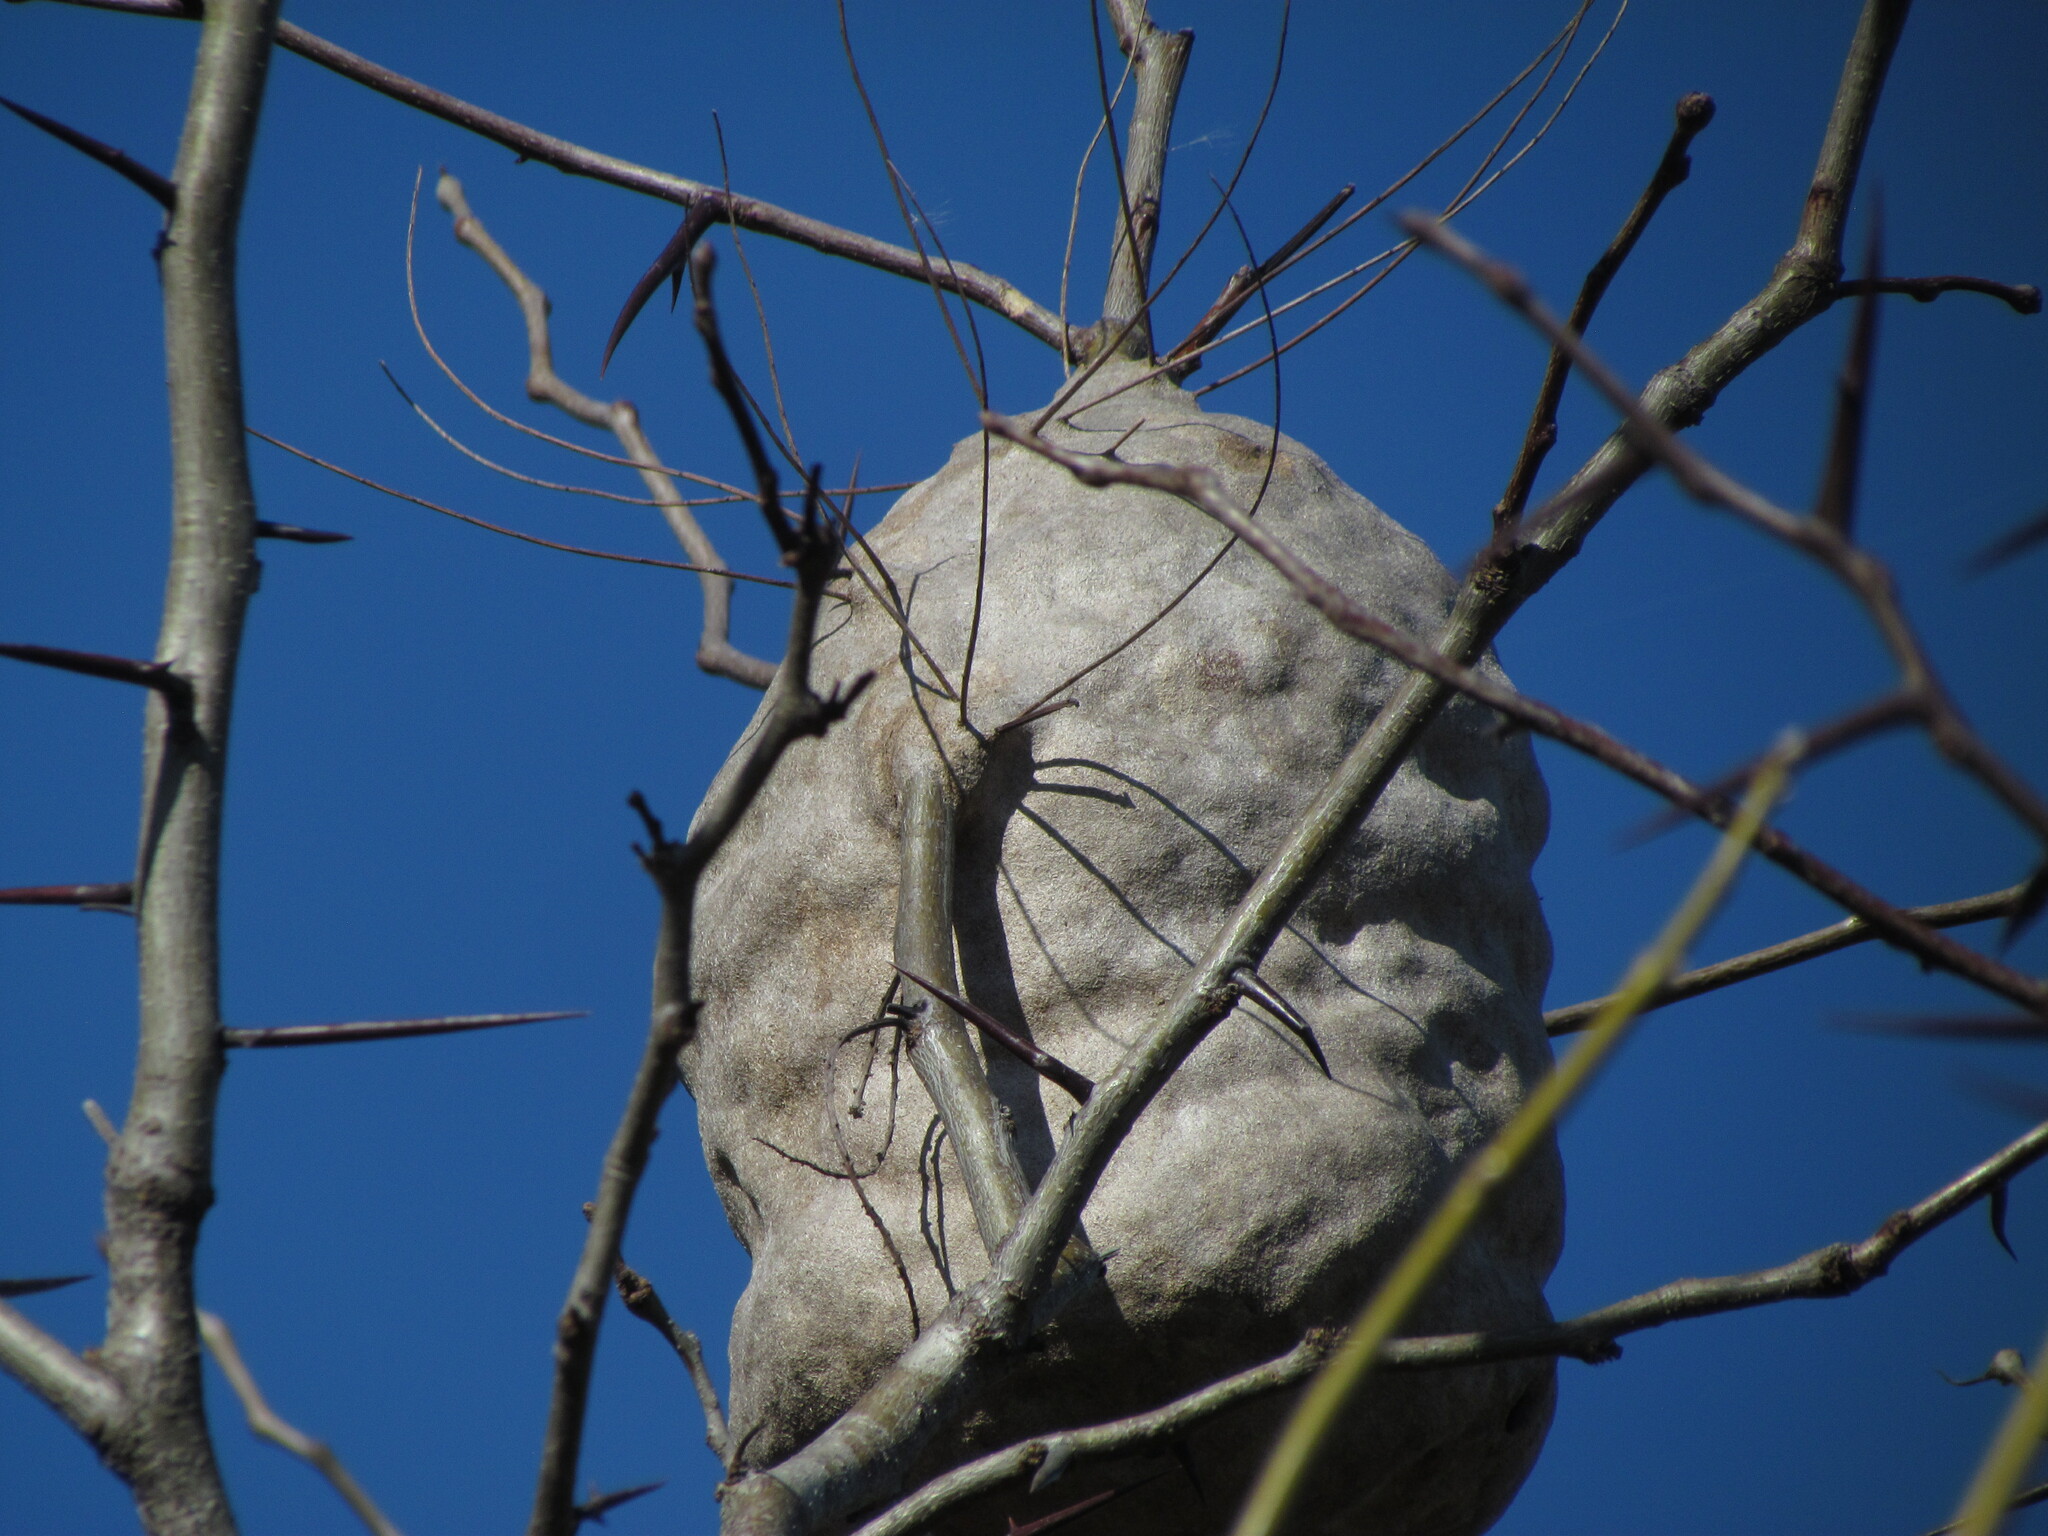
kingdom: Animalia
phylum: Arthropoda
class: Insecta
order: Hymenoptera
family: Eumenidae
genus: Polybia
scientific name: Polybia
